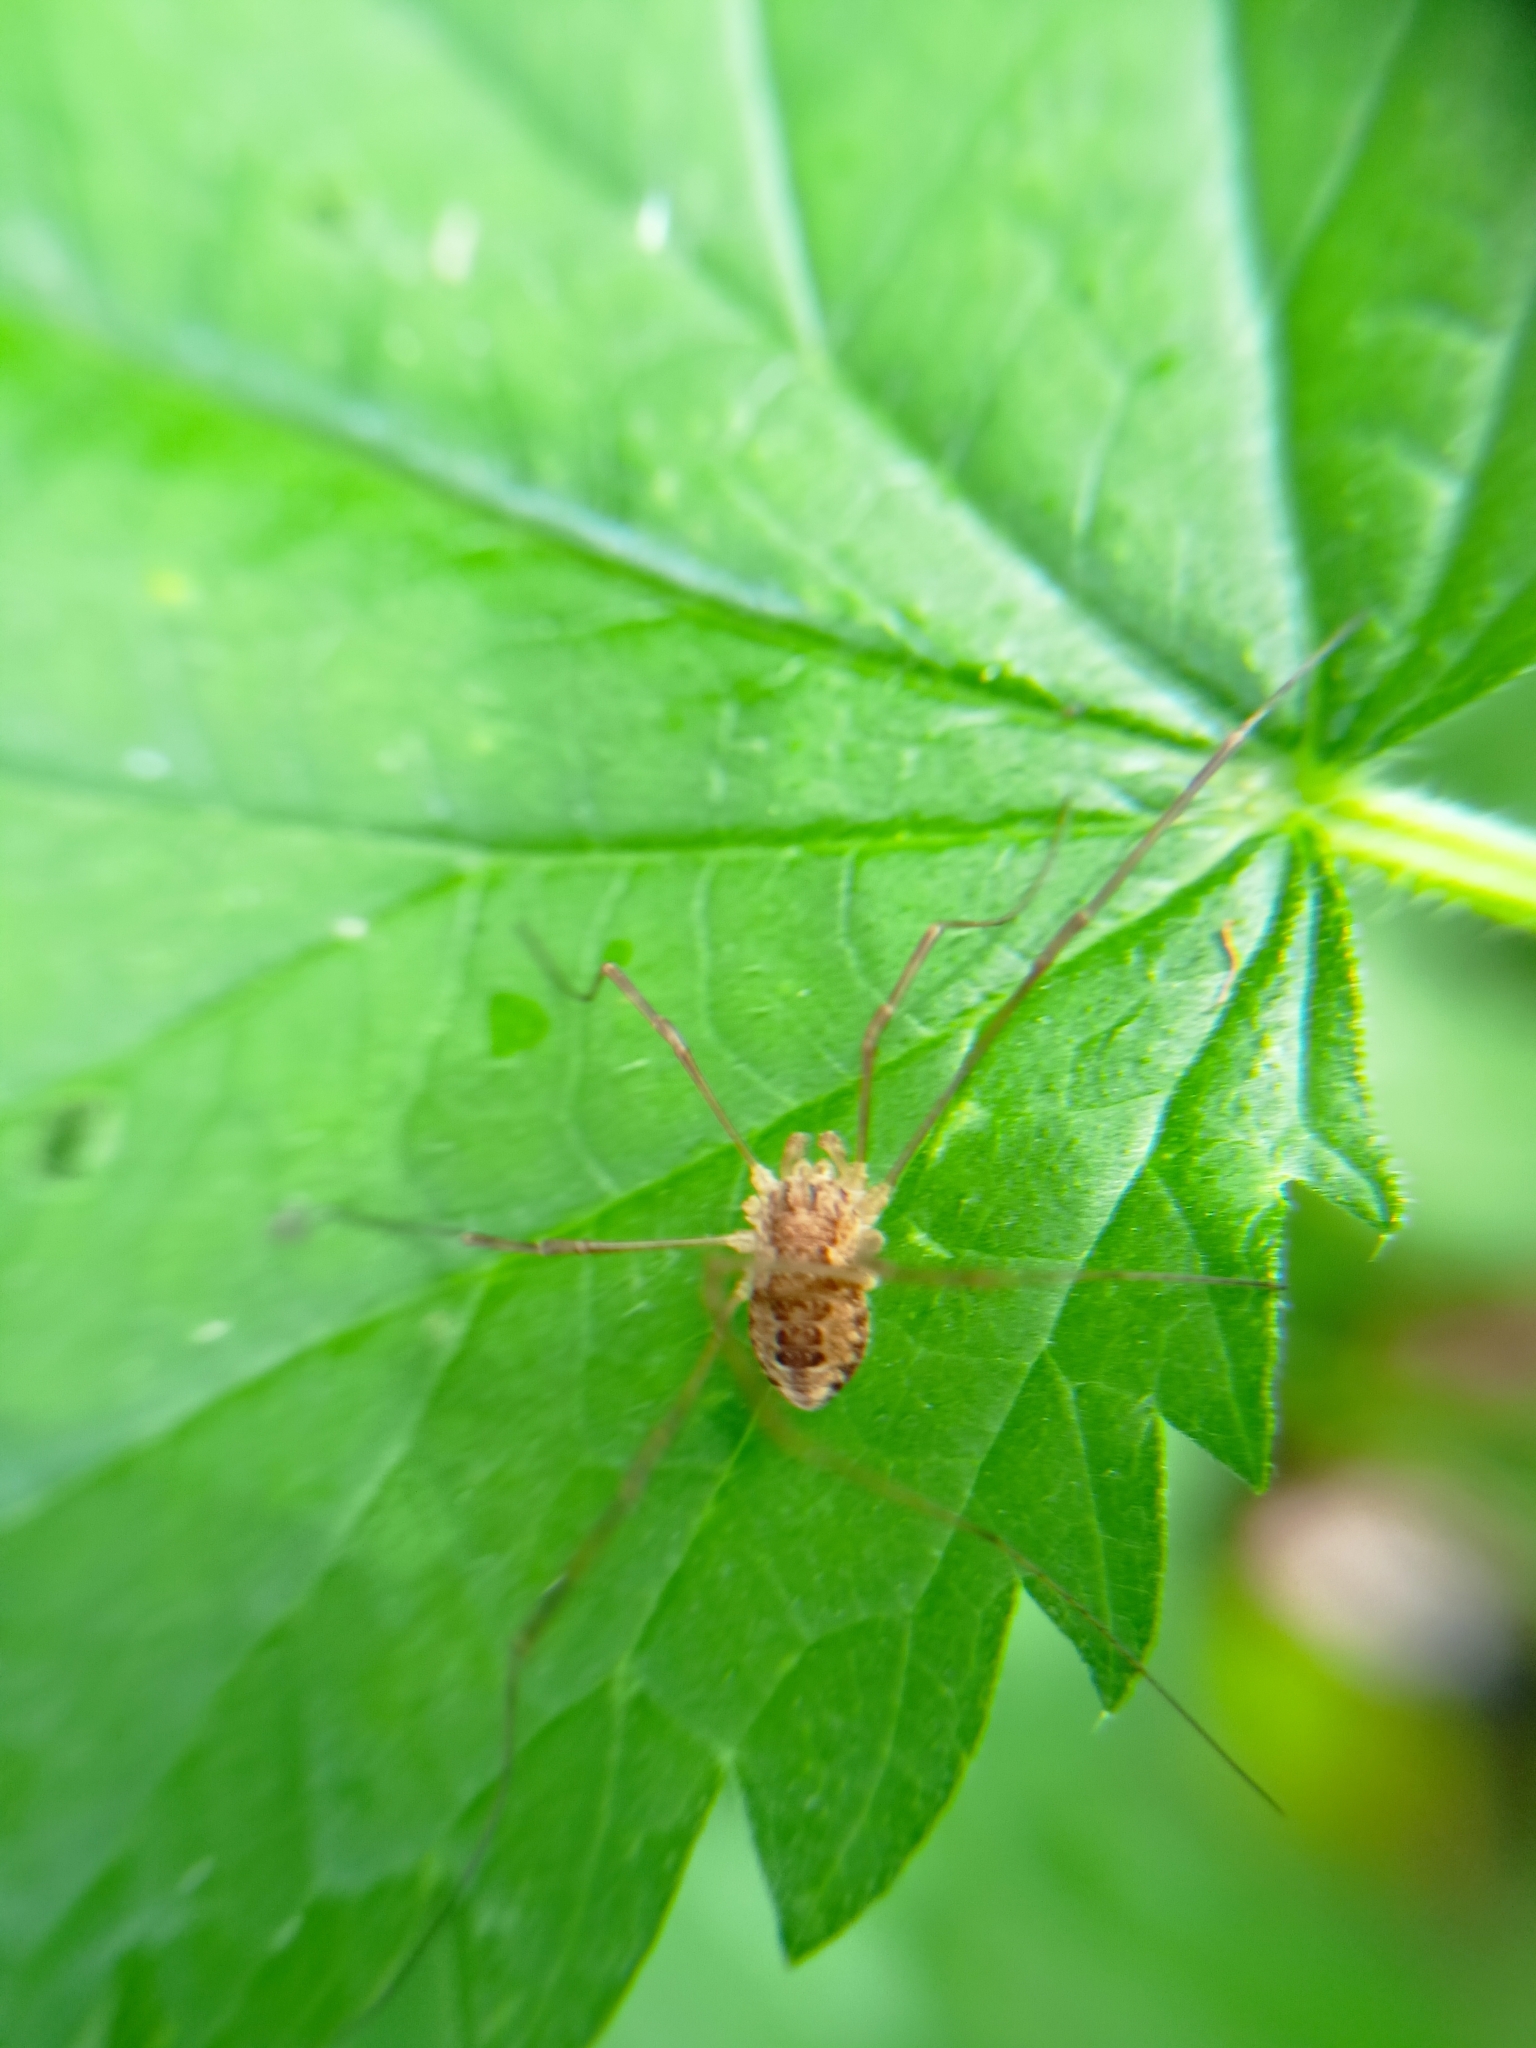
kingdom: Animalia
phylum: Arthropoda
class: Arachnida
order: Opiliones
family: Phalangiidae
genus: Rilaena
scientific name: Rilaena triangularis
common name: Spring harvestman
